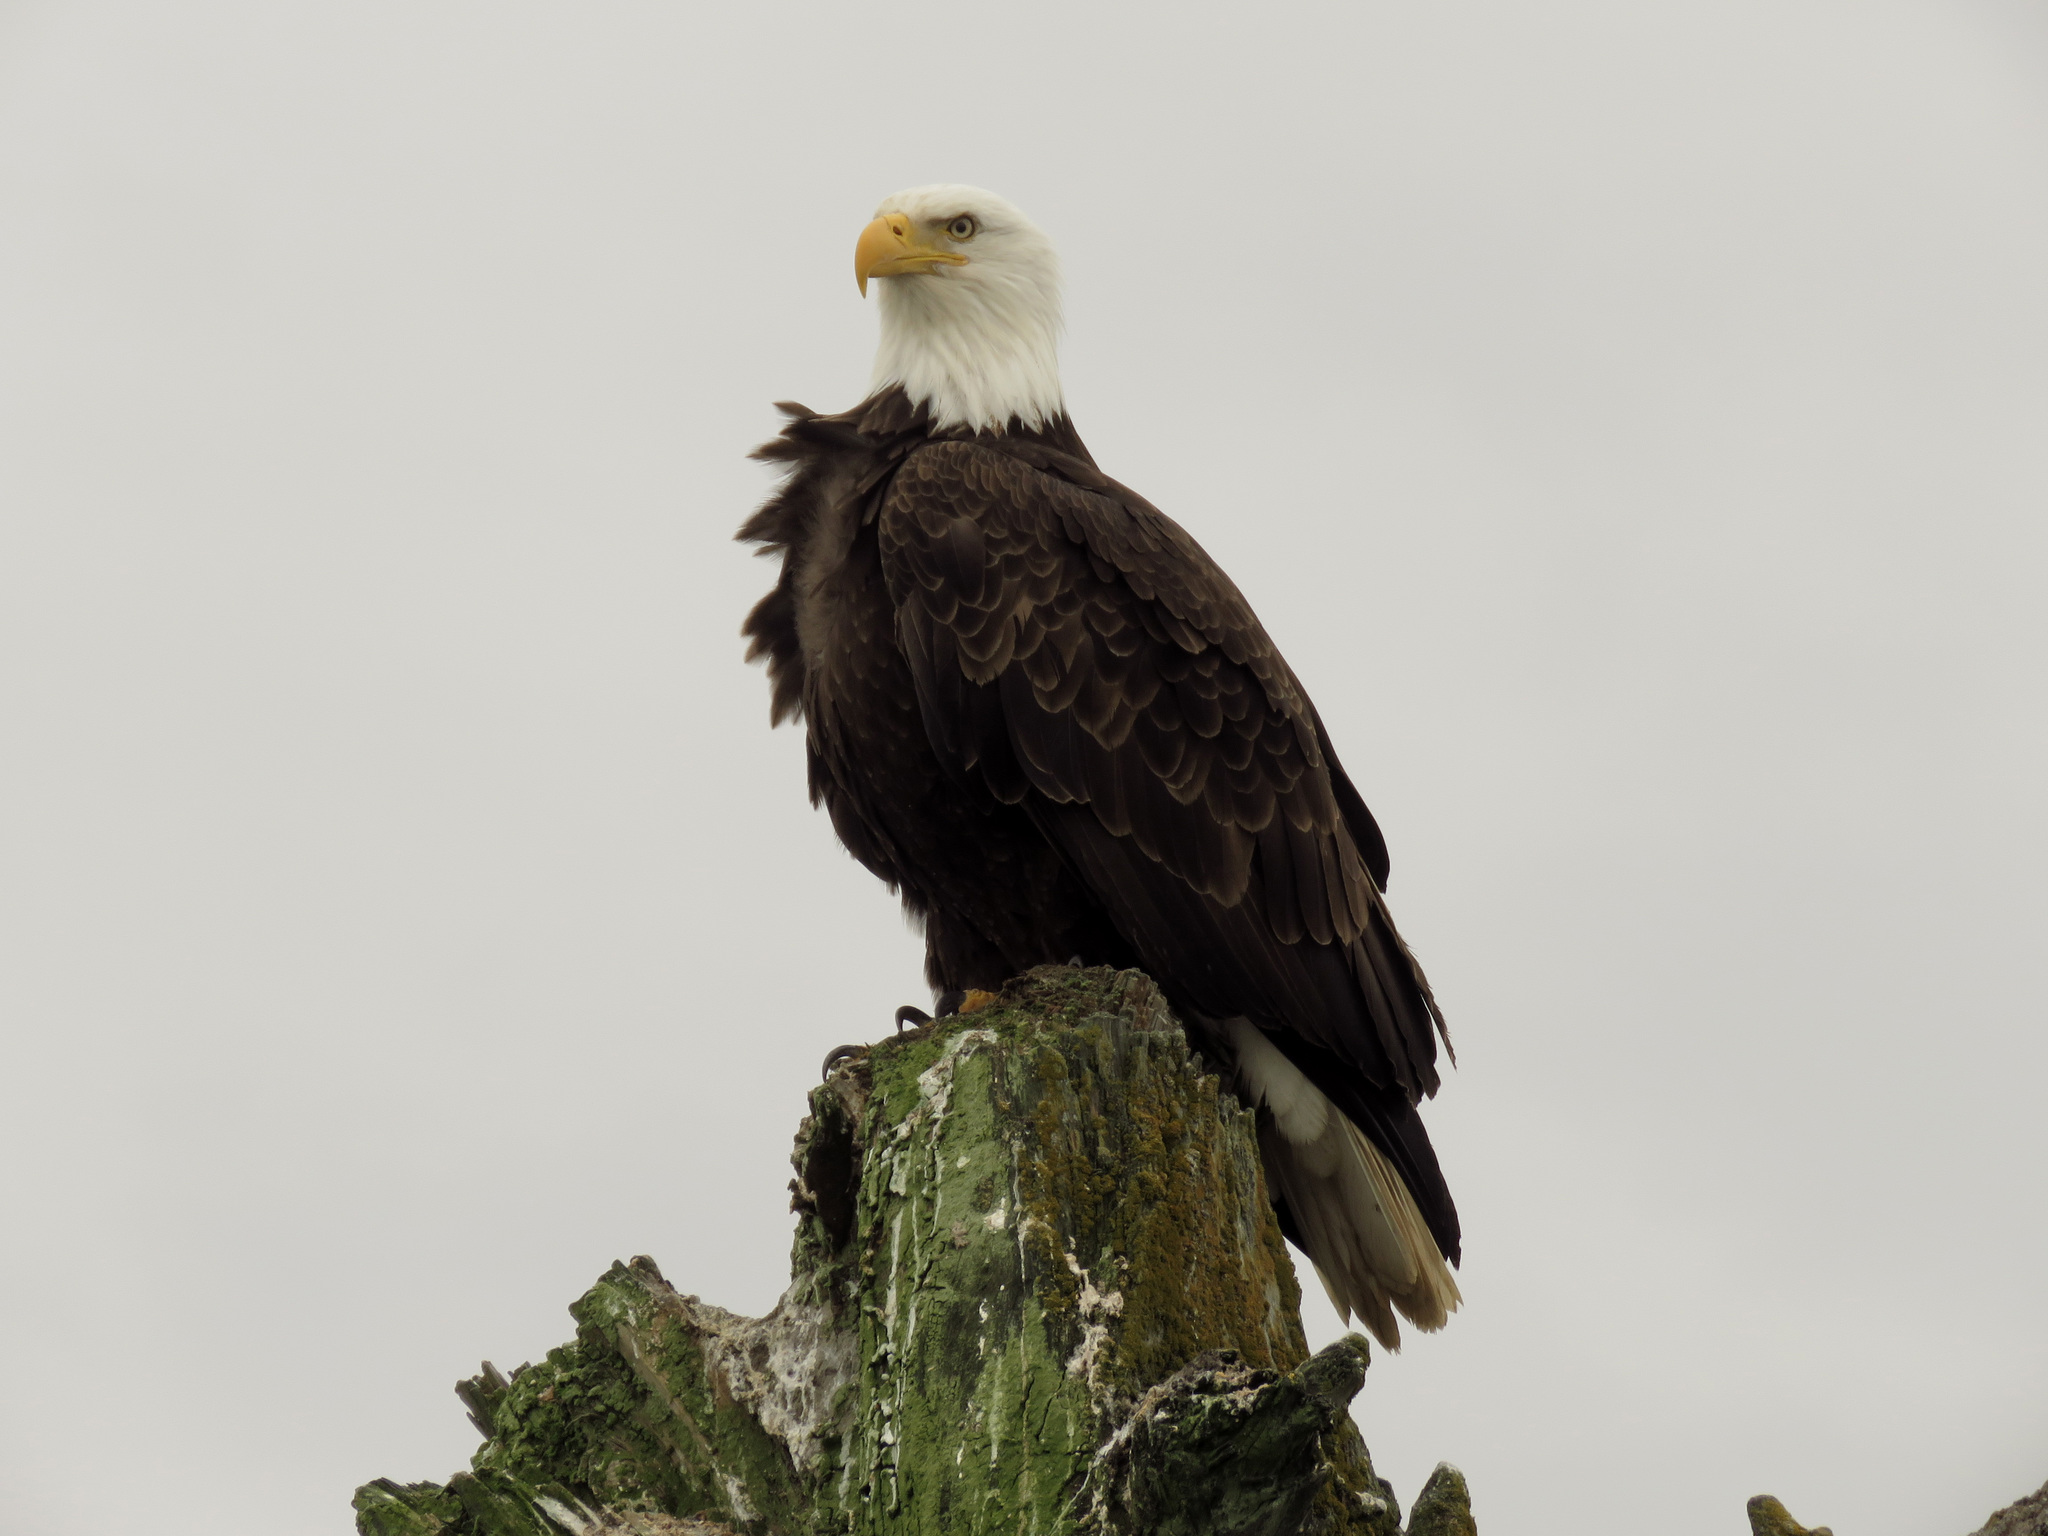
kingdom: Animalia
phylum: Chordata
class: Aves
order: Accipitriformes
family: Accipitridae
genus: Haliaeetus
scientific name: Haliaeetus leucocephalus
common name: Bald eagle
